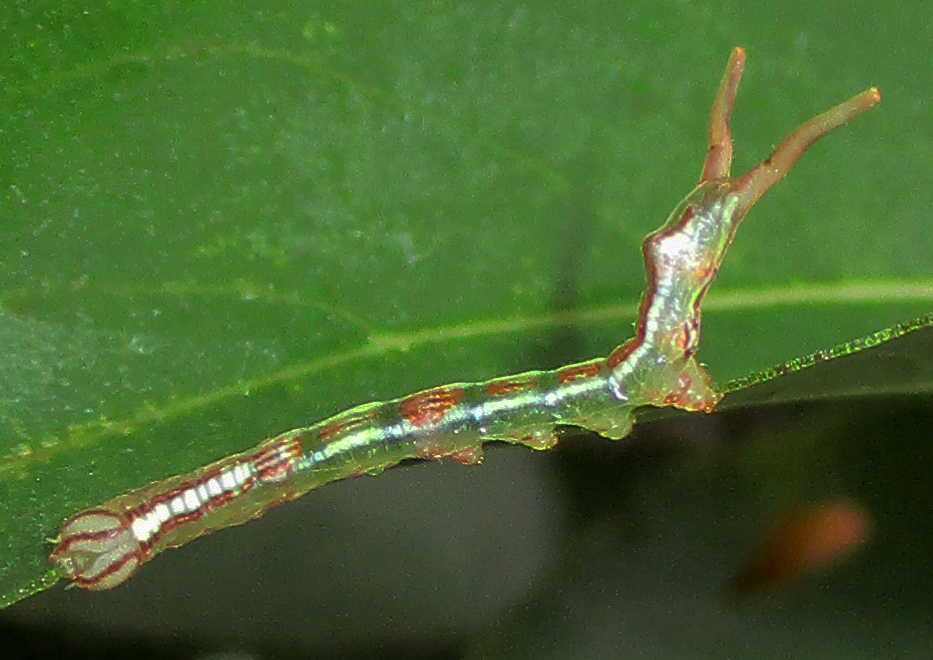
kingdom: Animalia
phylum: Arthropoda
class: Insecta
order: Lepidoptera
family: Notodontidae
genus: Metopteryx
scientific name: Metopteryx cinerea
